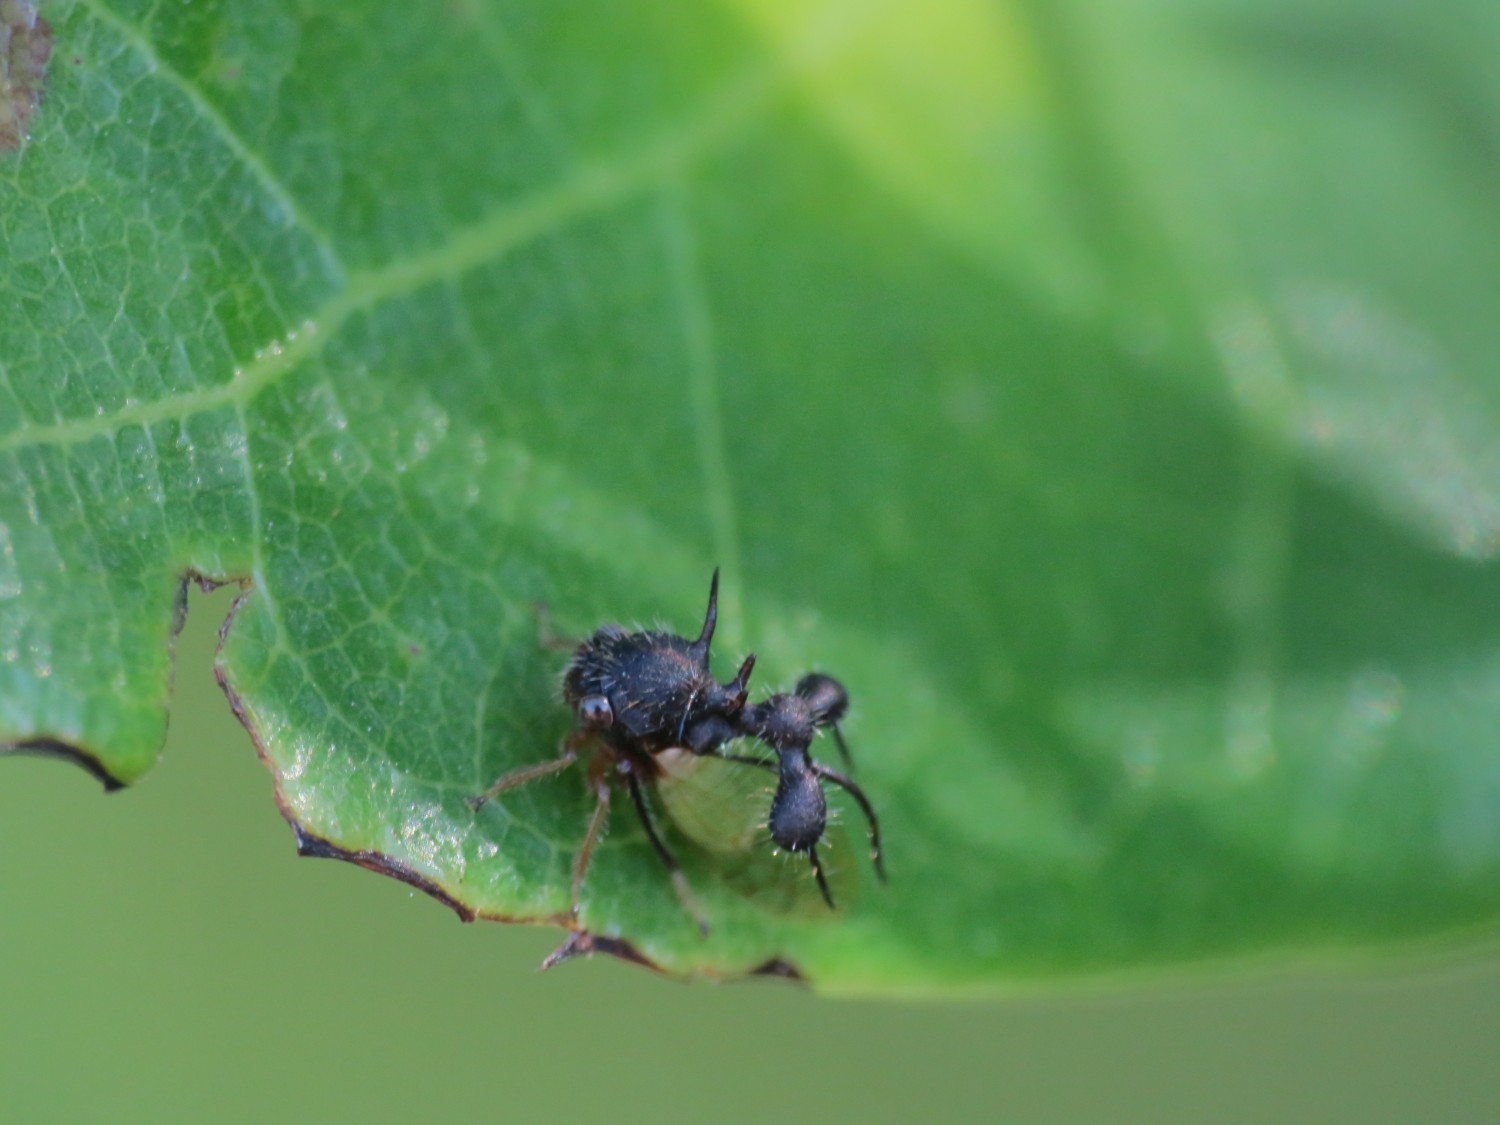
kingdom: Animalia
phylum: Arthropoda
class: Insecta
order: Hemiptera
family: Membracidae
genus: Cyphonia
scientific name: Cyphonia clavata
